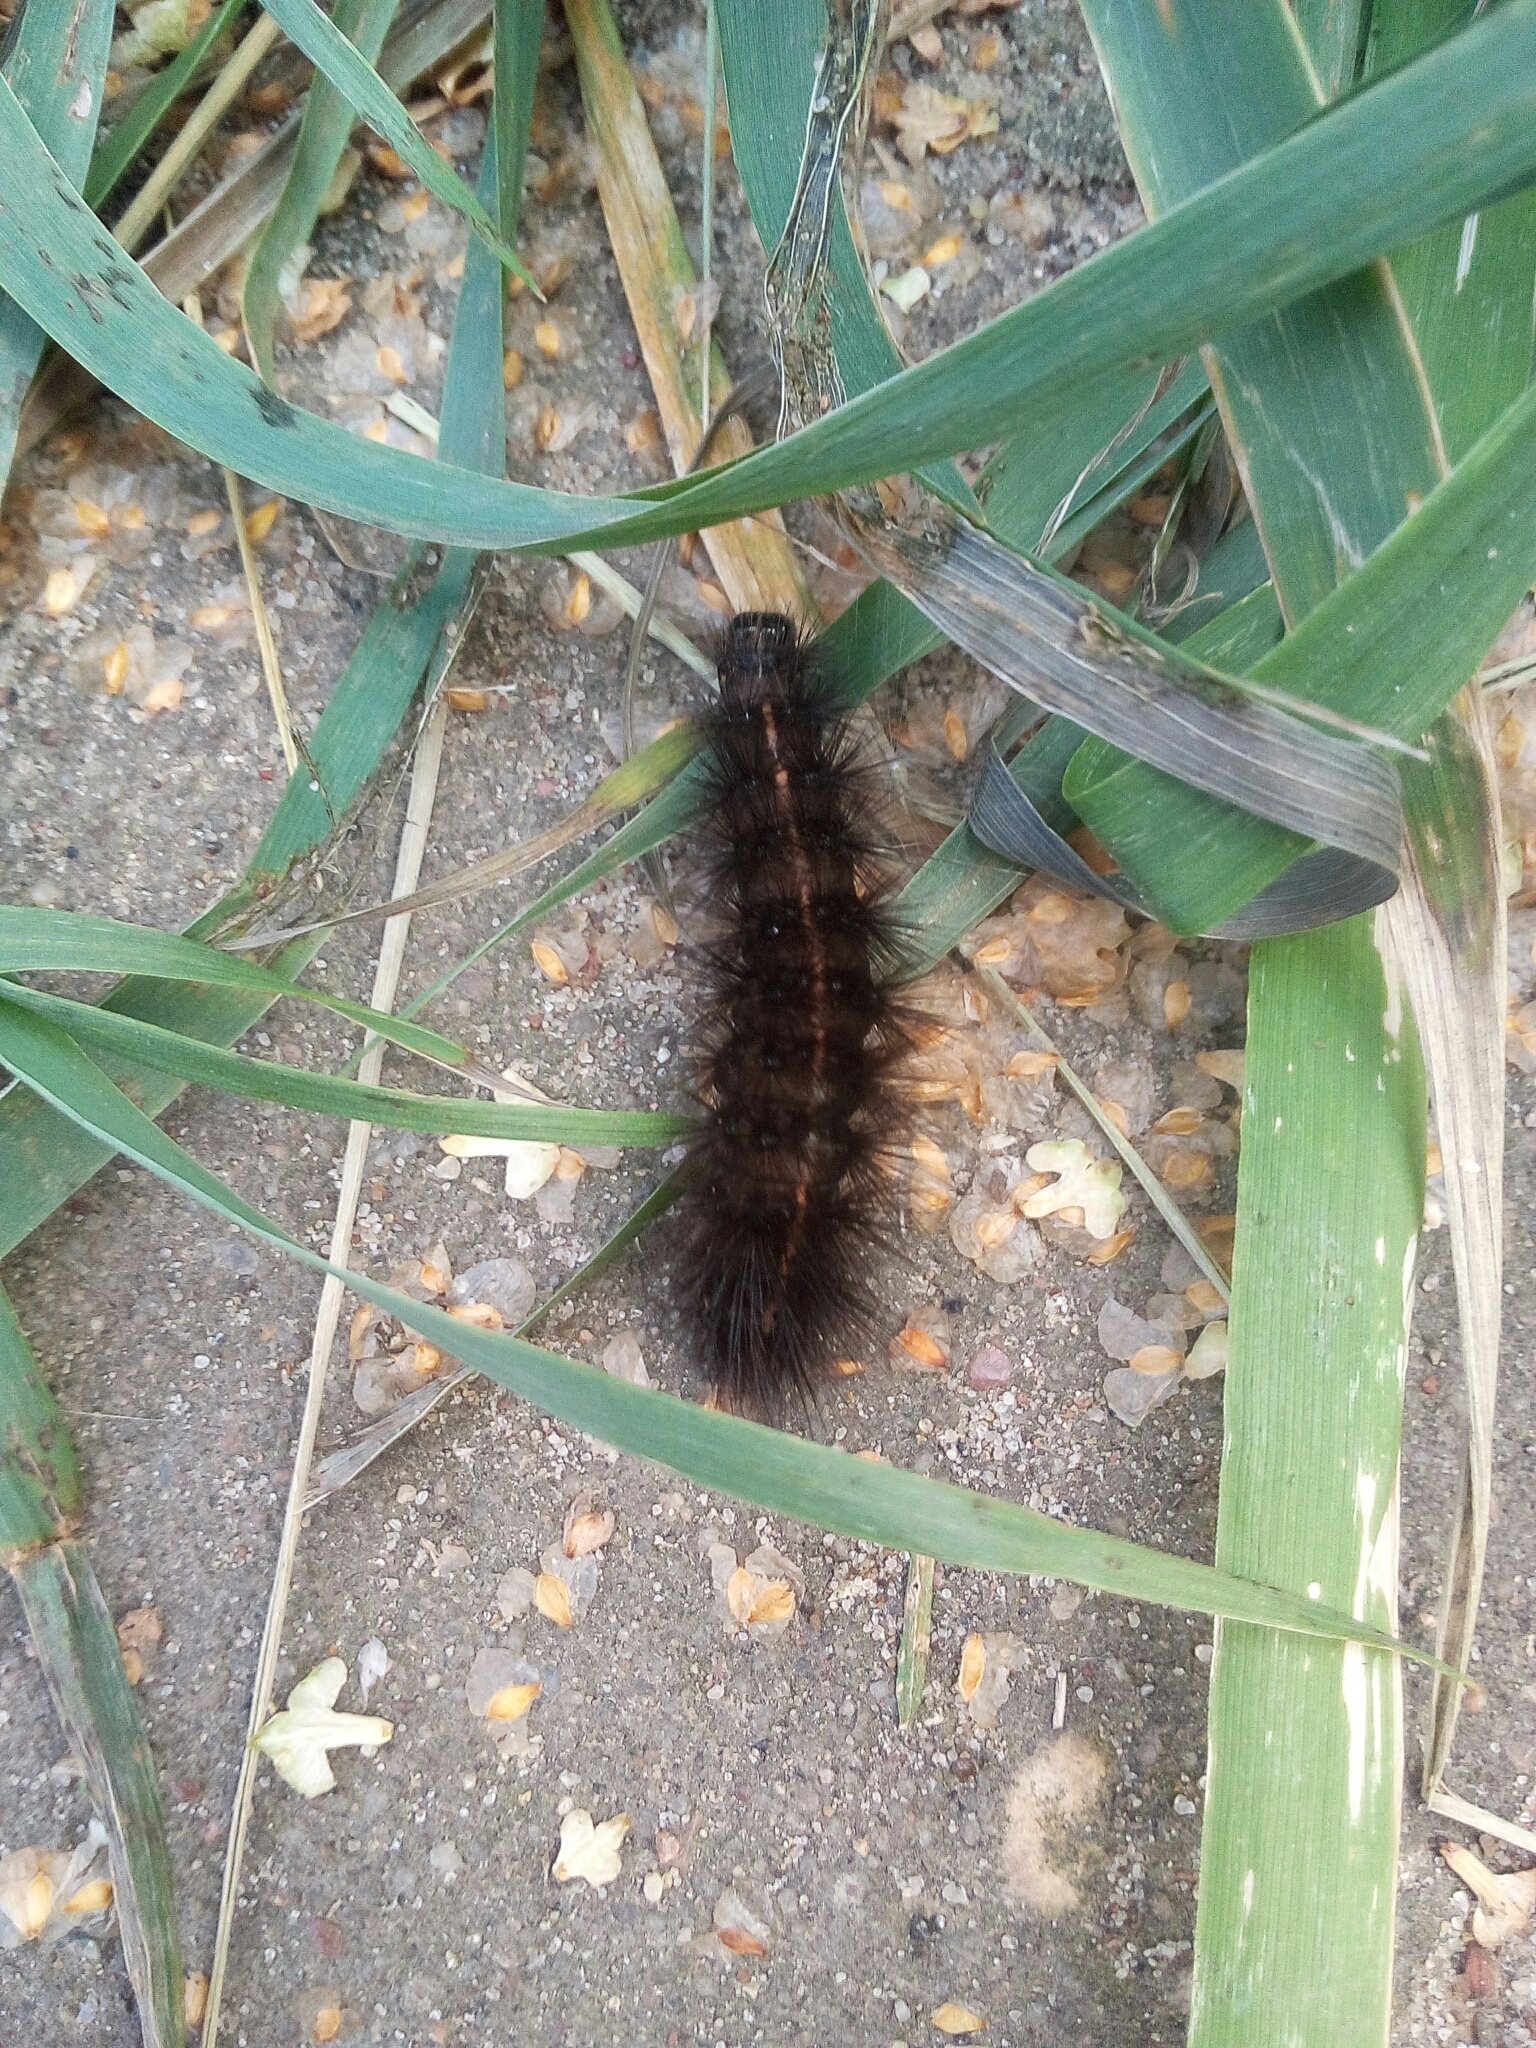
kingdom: Animalia
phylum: Arthropoda
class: Insecta
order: Lepidoptera
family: Erebidae
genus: Spilosoma
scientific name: Spilosoma lubricipeda
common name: White ermine
